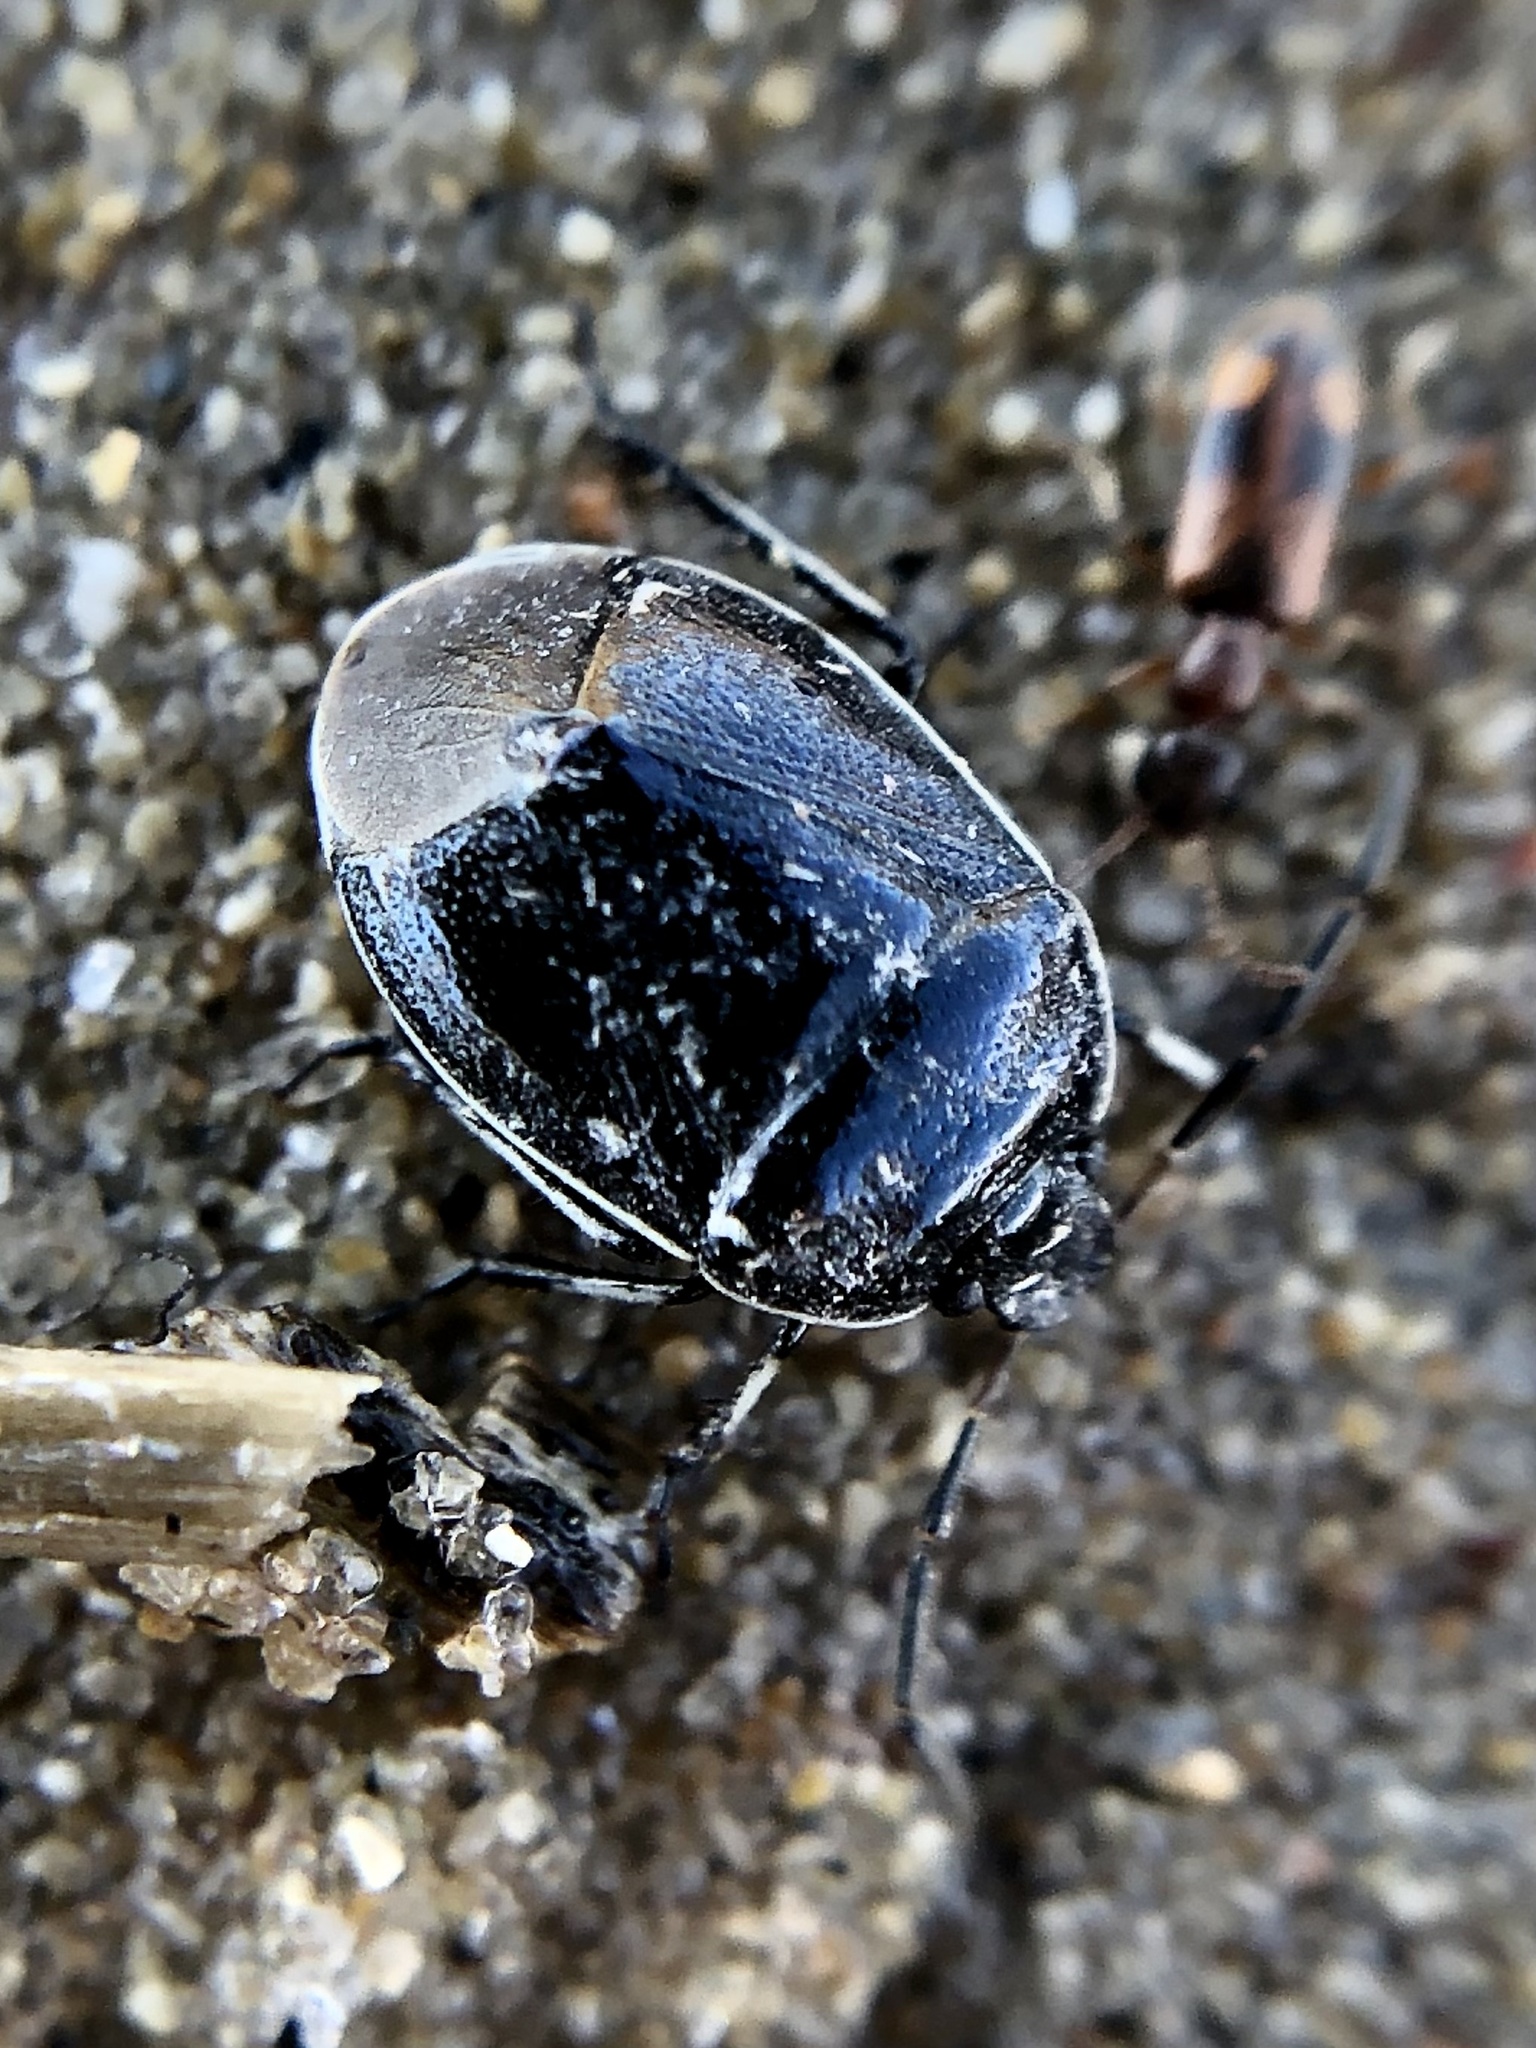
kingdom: Animalia
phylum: Arthropoda
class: Insecta
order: Hemiptera
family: Cydnidae
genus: Sehirus
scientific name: Sehirus cinctus
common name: White-margined burrower bug
